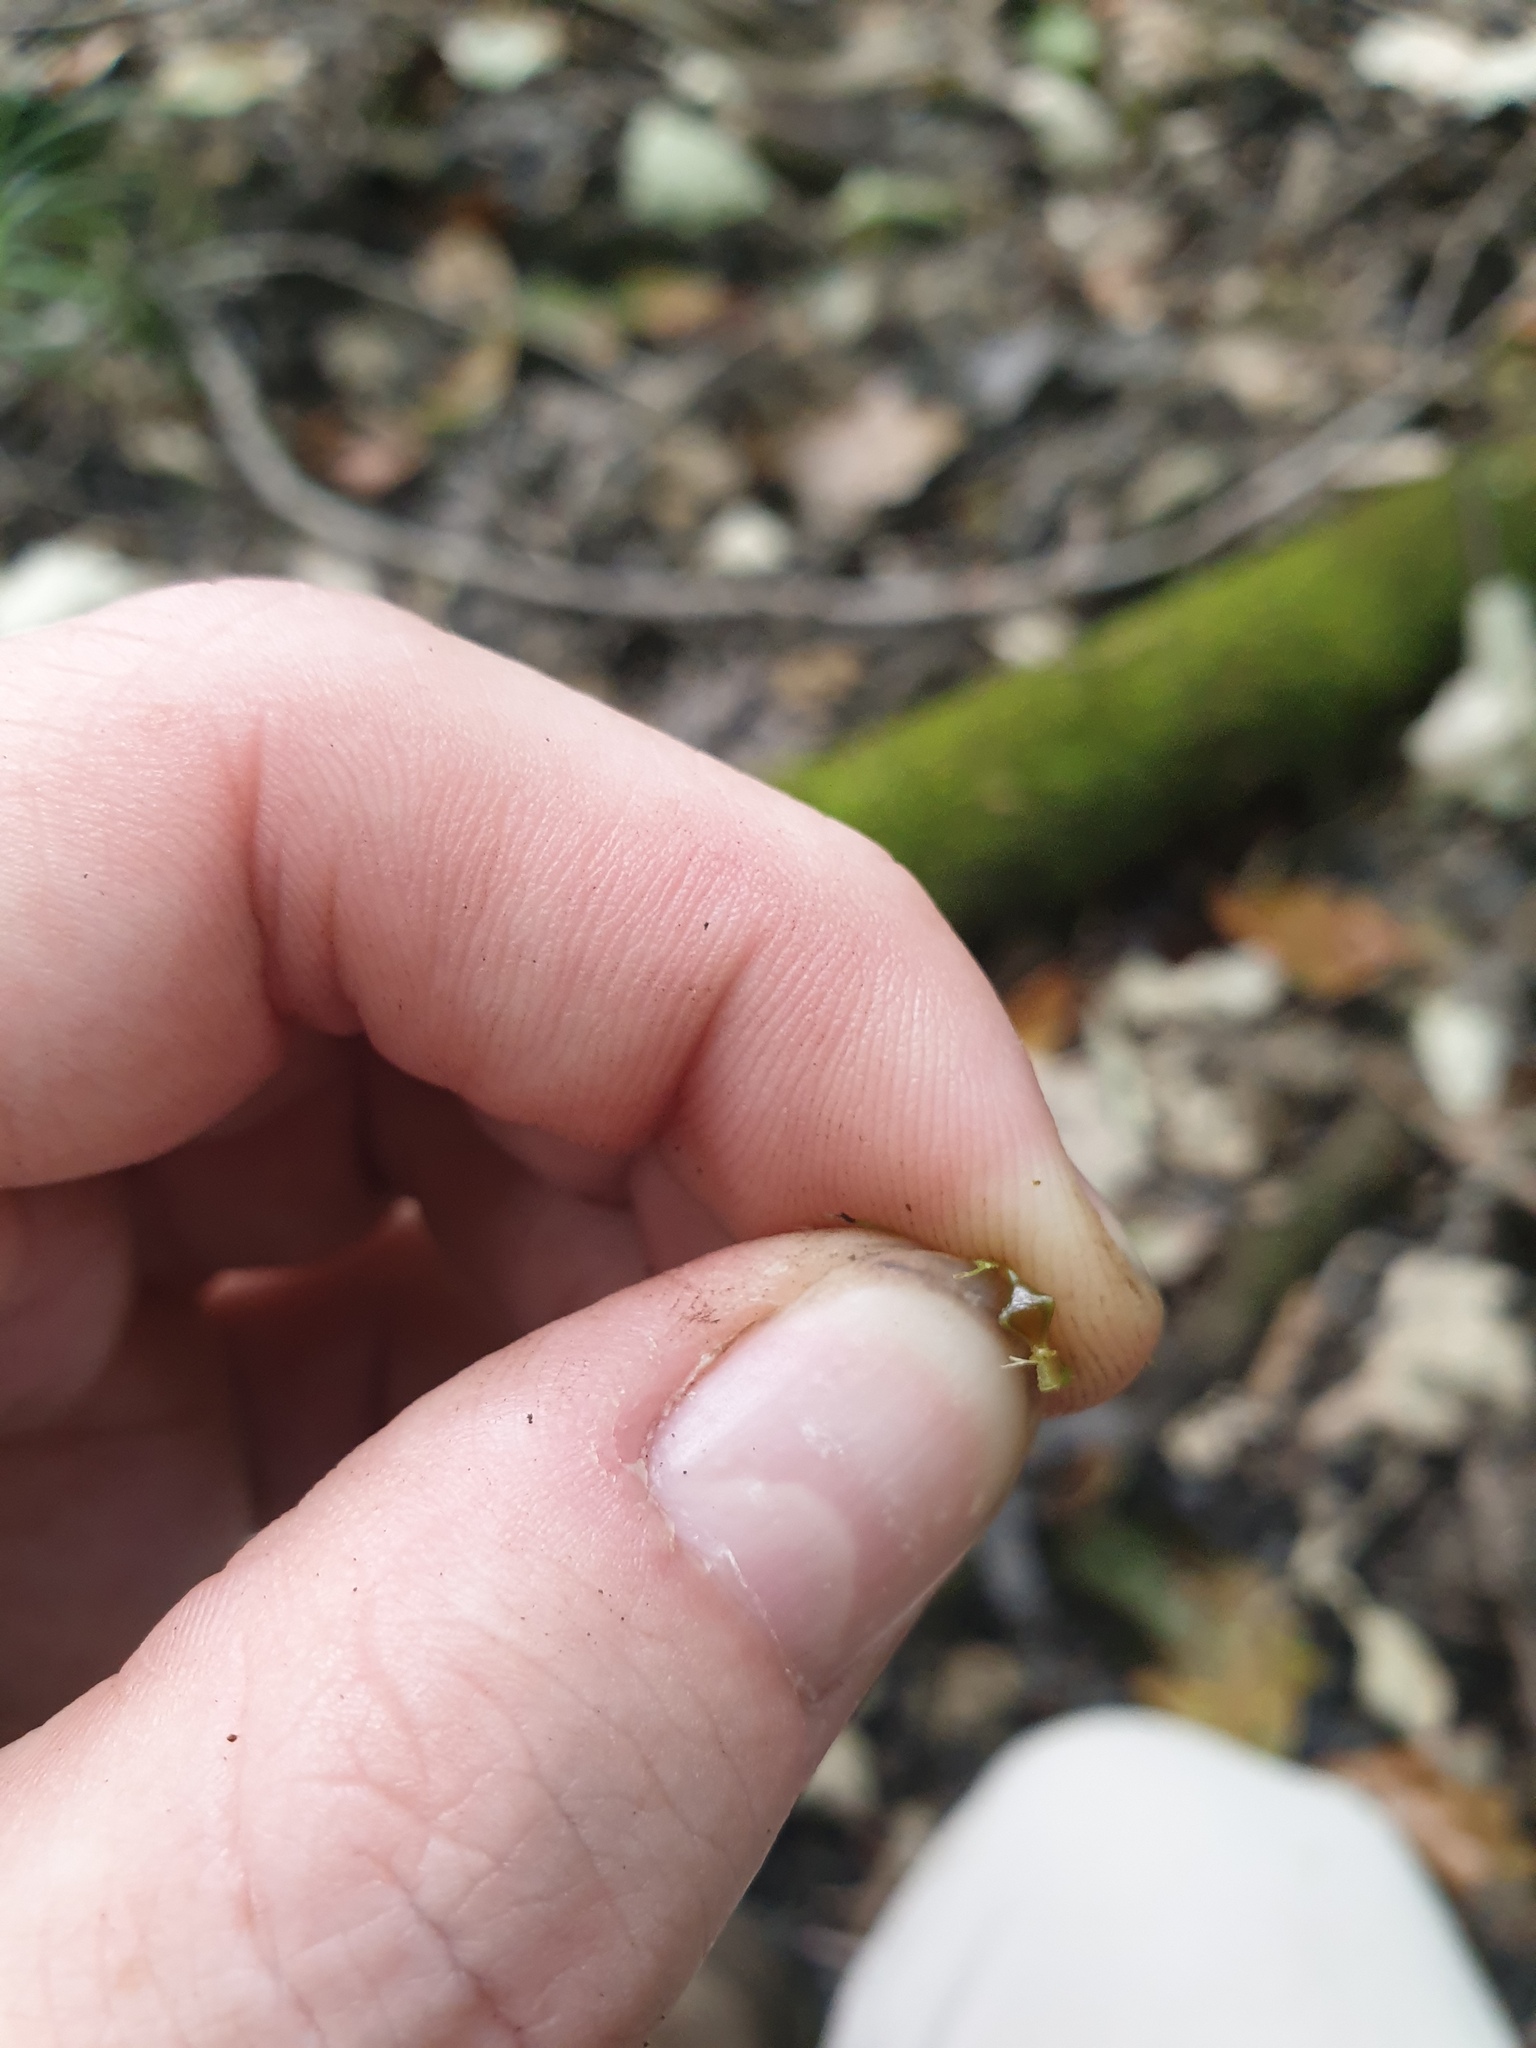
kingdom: Plantae
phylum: Tracheophyta
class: Liliopsida
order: Poales
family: Cyperaceae
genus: Carex
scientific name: Carex lupuliformis
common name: False hop sedge
